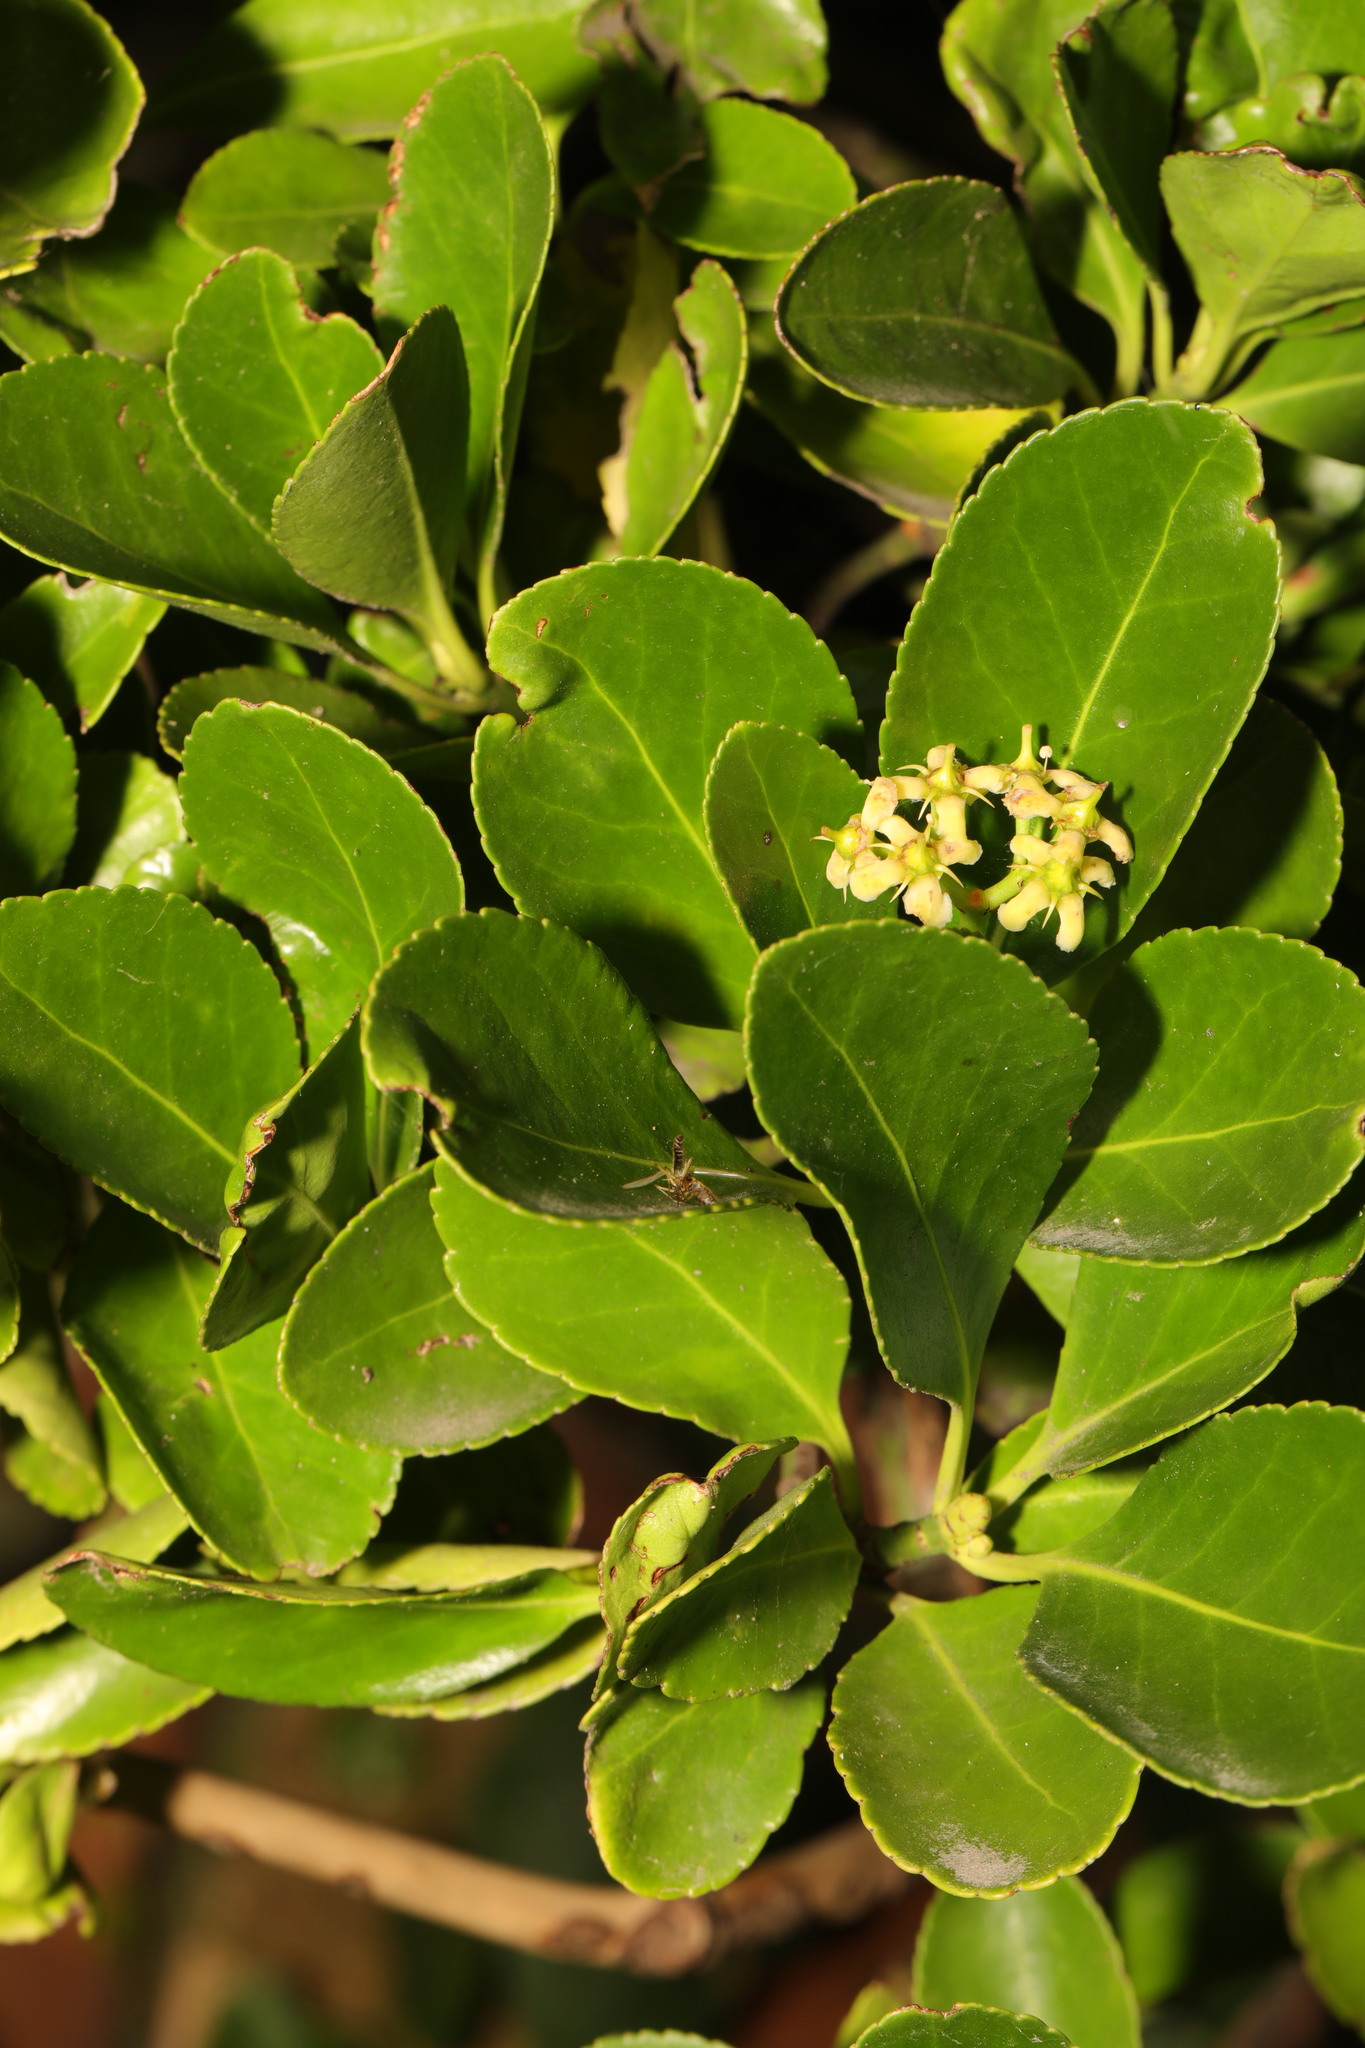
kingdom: Plantae
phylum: Tracheophyta
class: Magnoliopsida
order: Celastrales
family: Celastraceae
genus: Euonymus
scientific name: Euonymus japonicus
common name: Japanese spindletree
